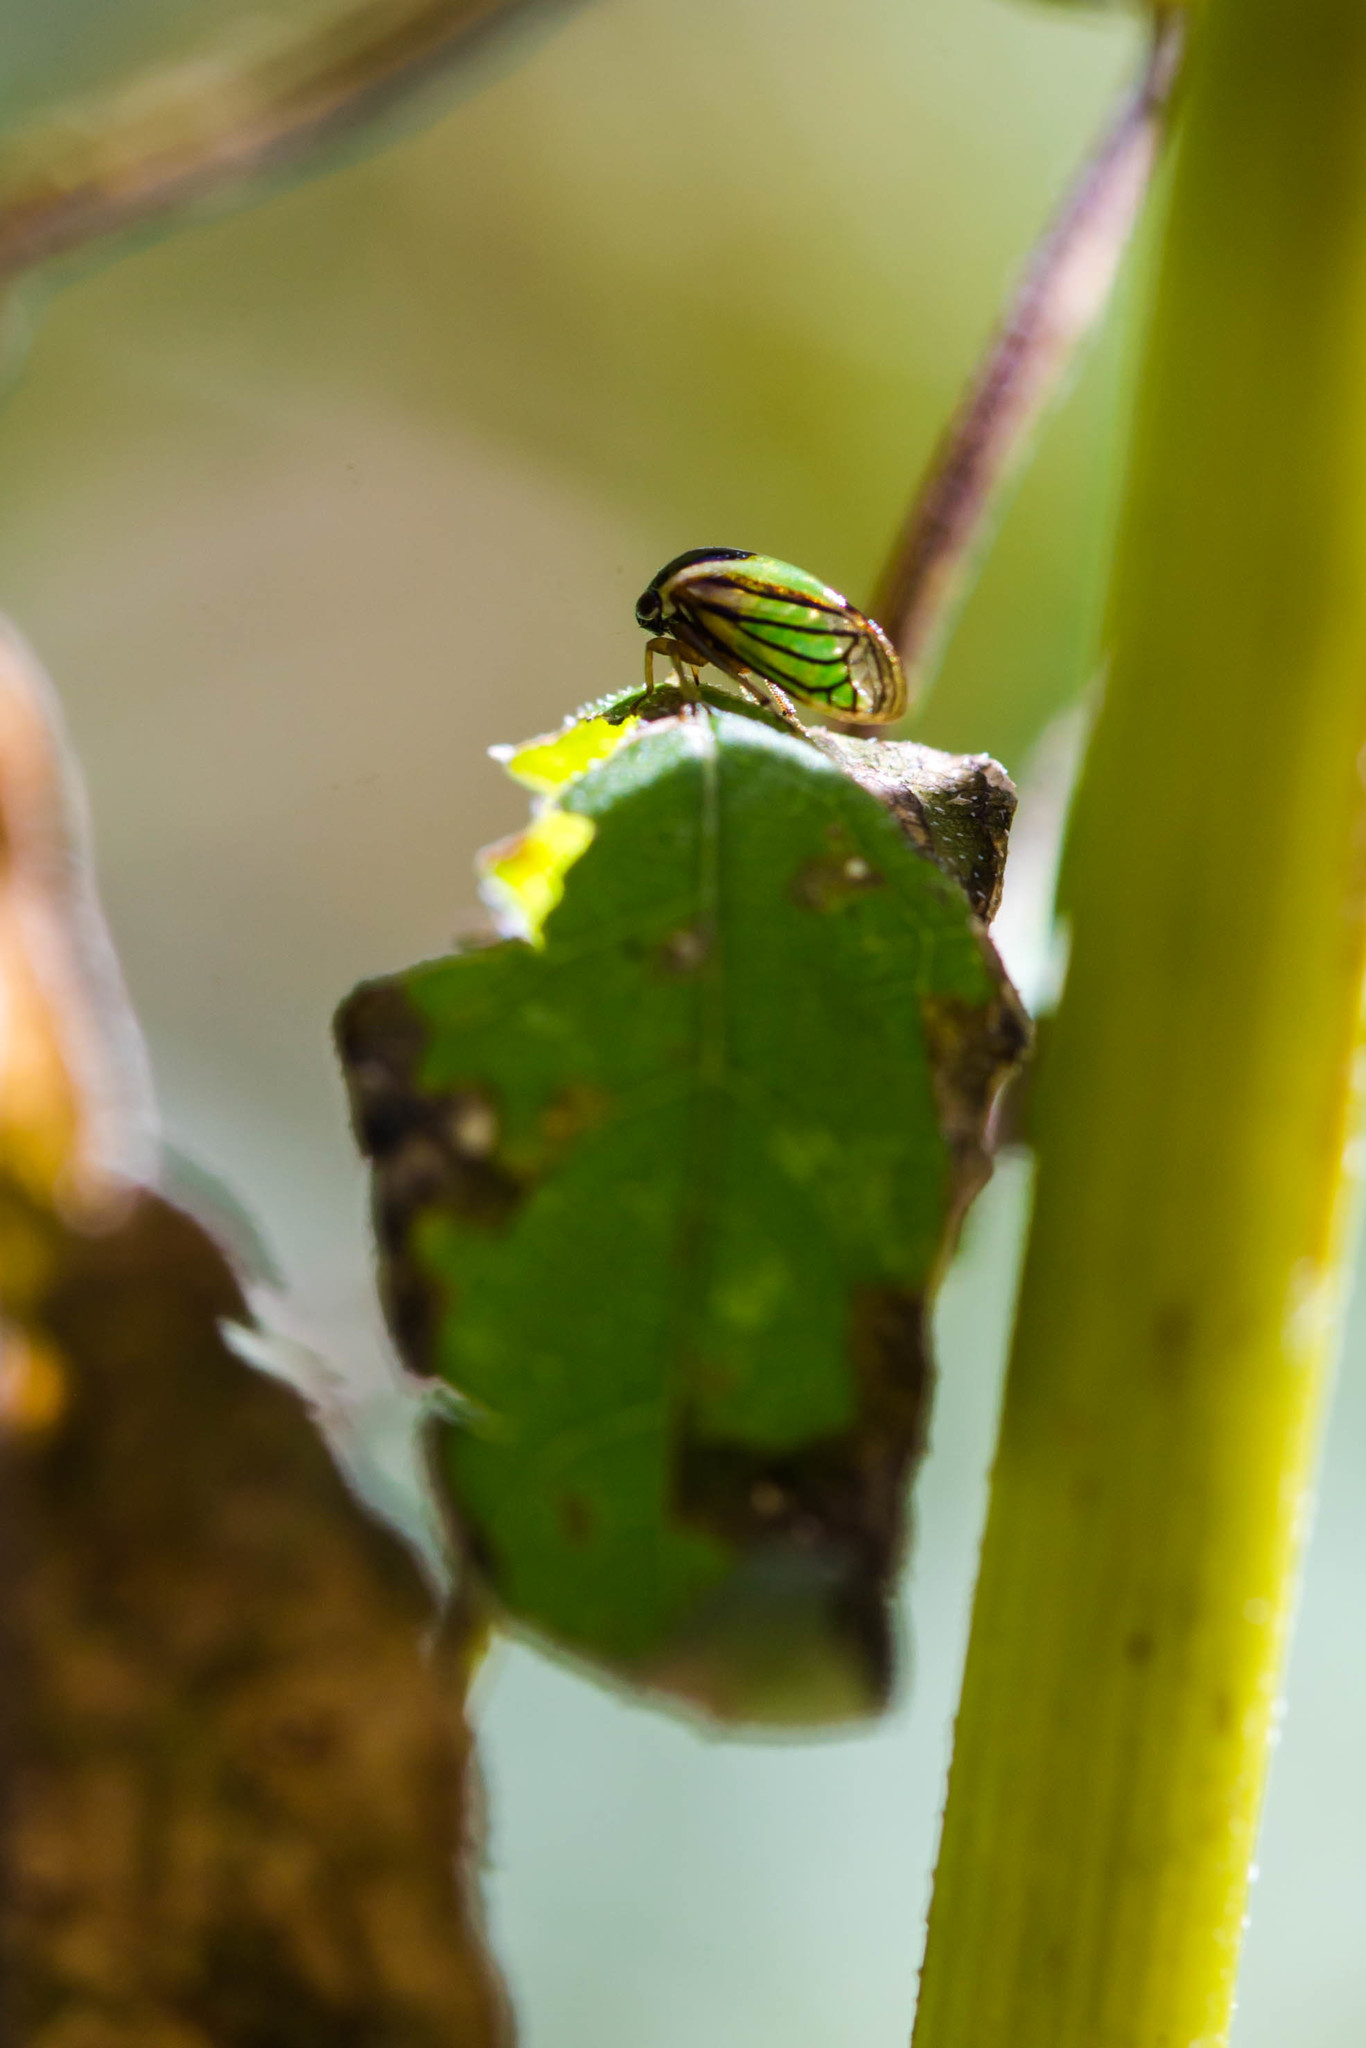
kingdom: Animalia
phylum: Arthropoda
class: Insecta
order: Hemiptera
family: Membracidae
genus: Acutalis
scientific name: Acutalis tartarea
